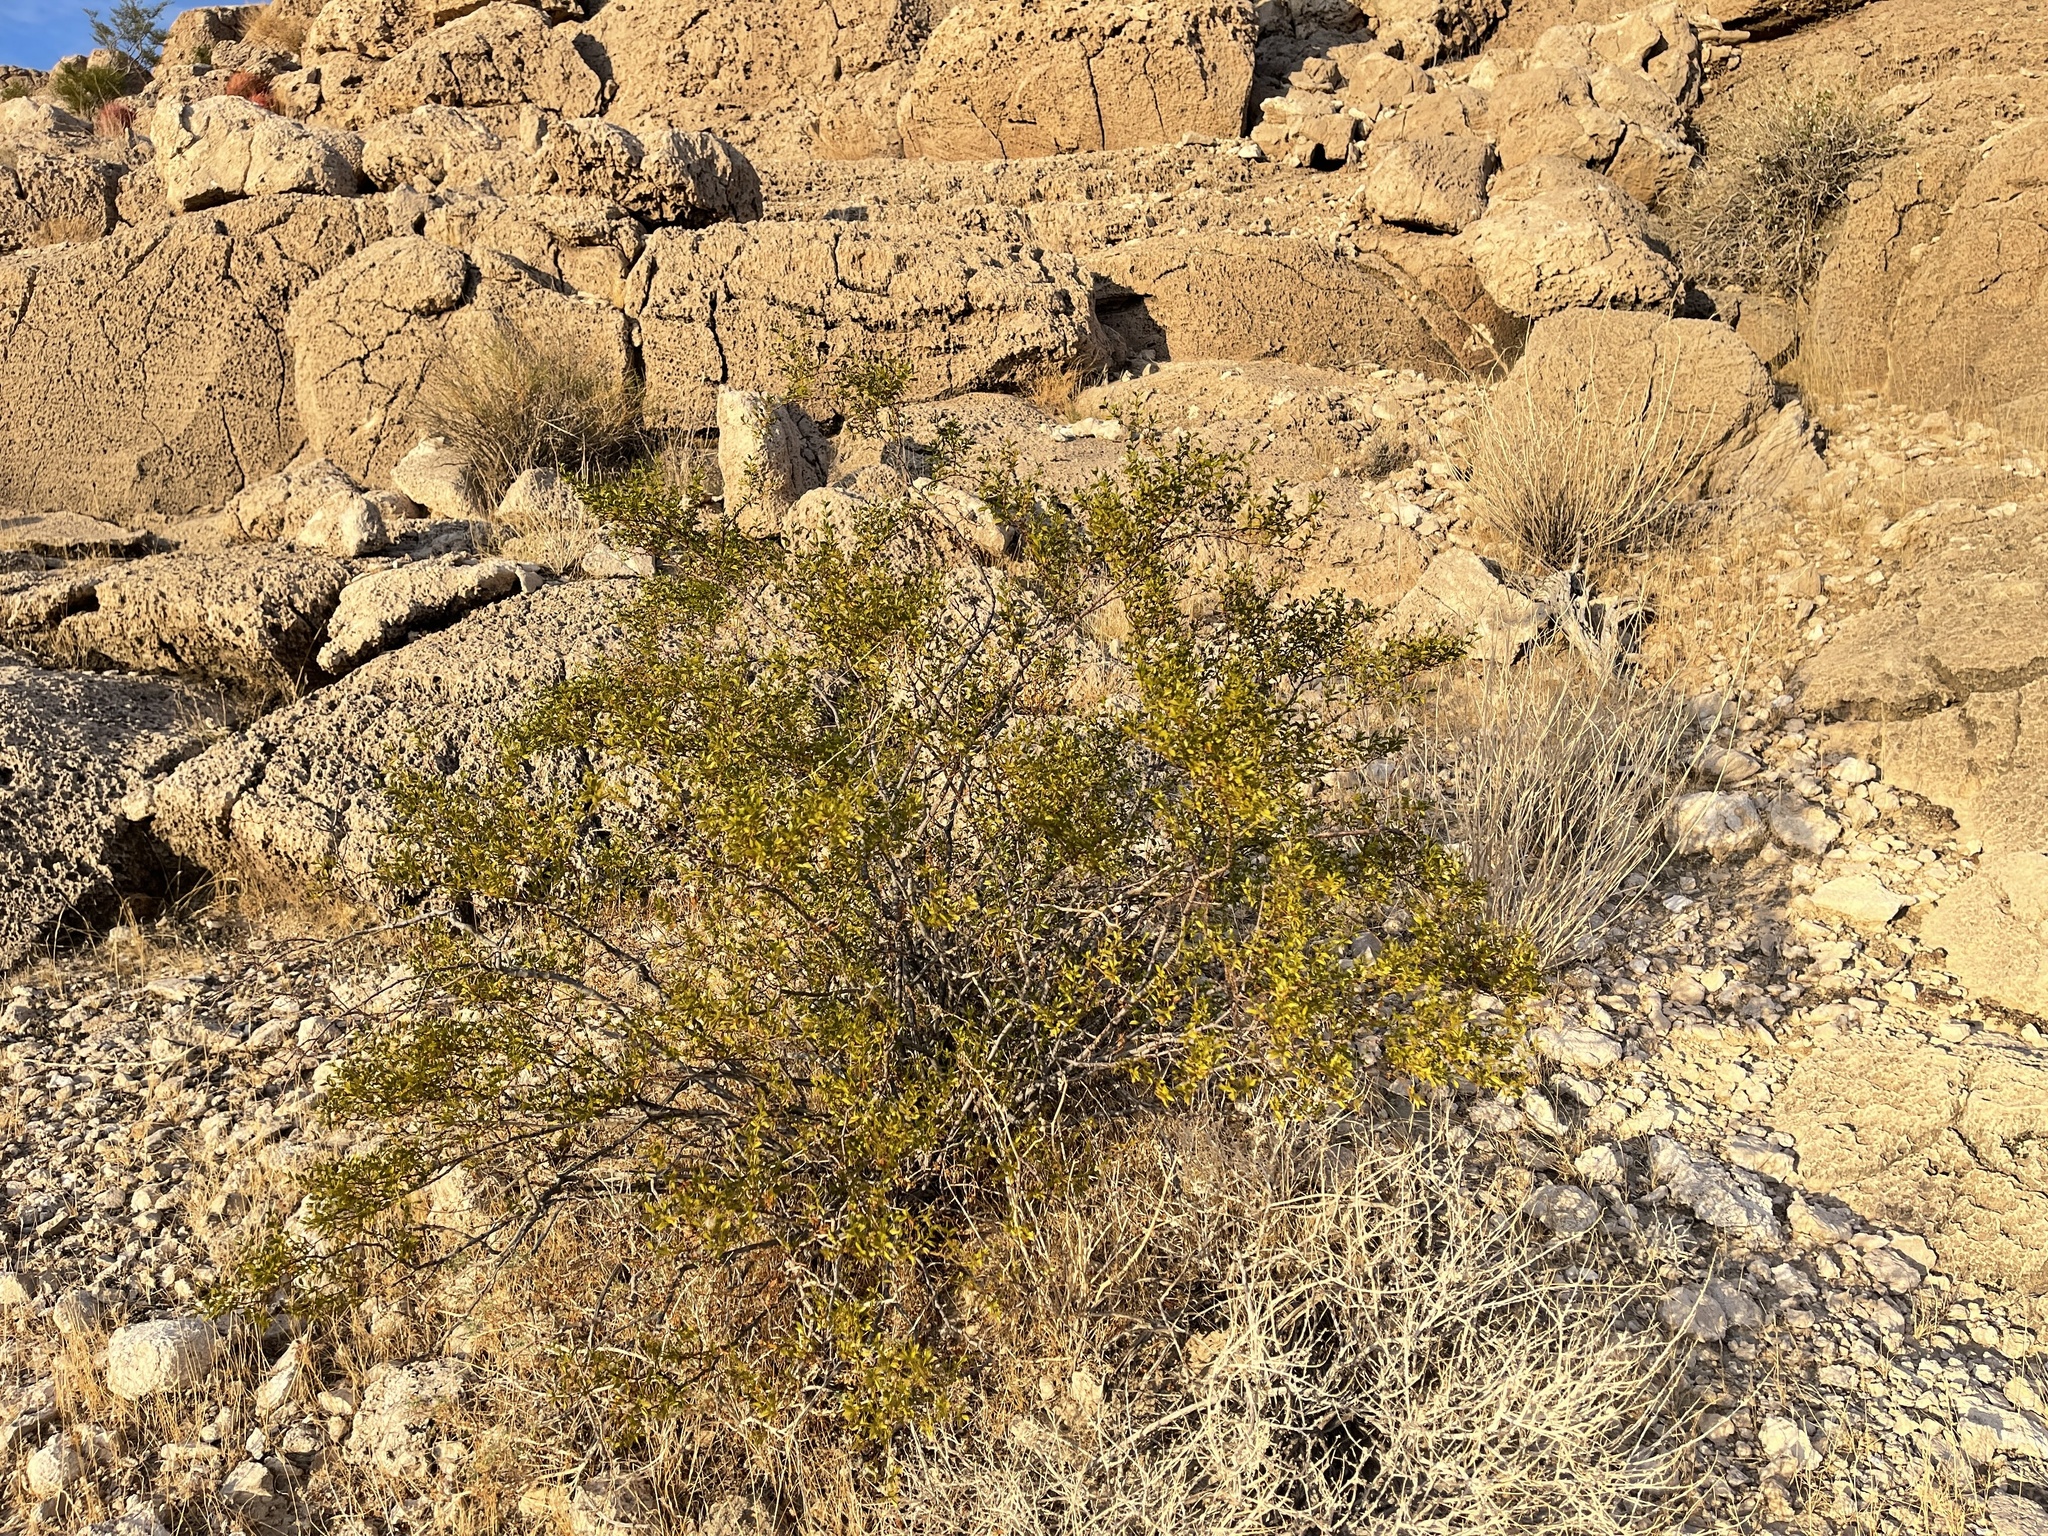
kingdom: Plantae
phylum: Tracheophyta
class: Magnoliopsida
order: Zygophyllales
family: Zygophyllaceae
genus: Larrea
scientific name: Larrea tridentata
